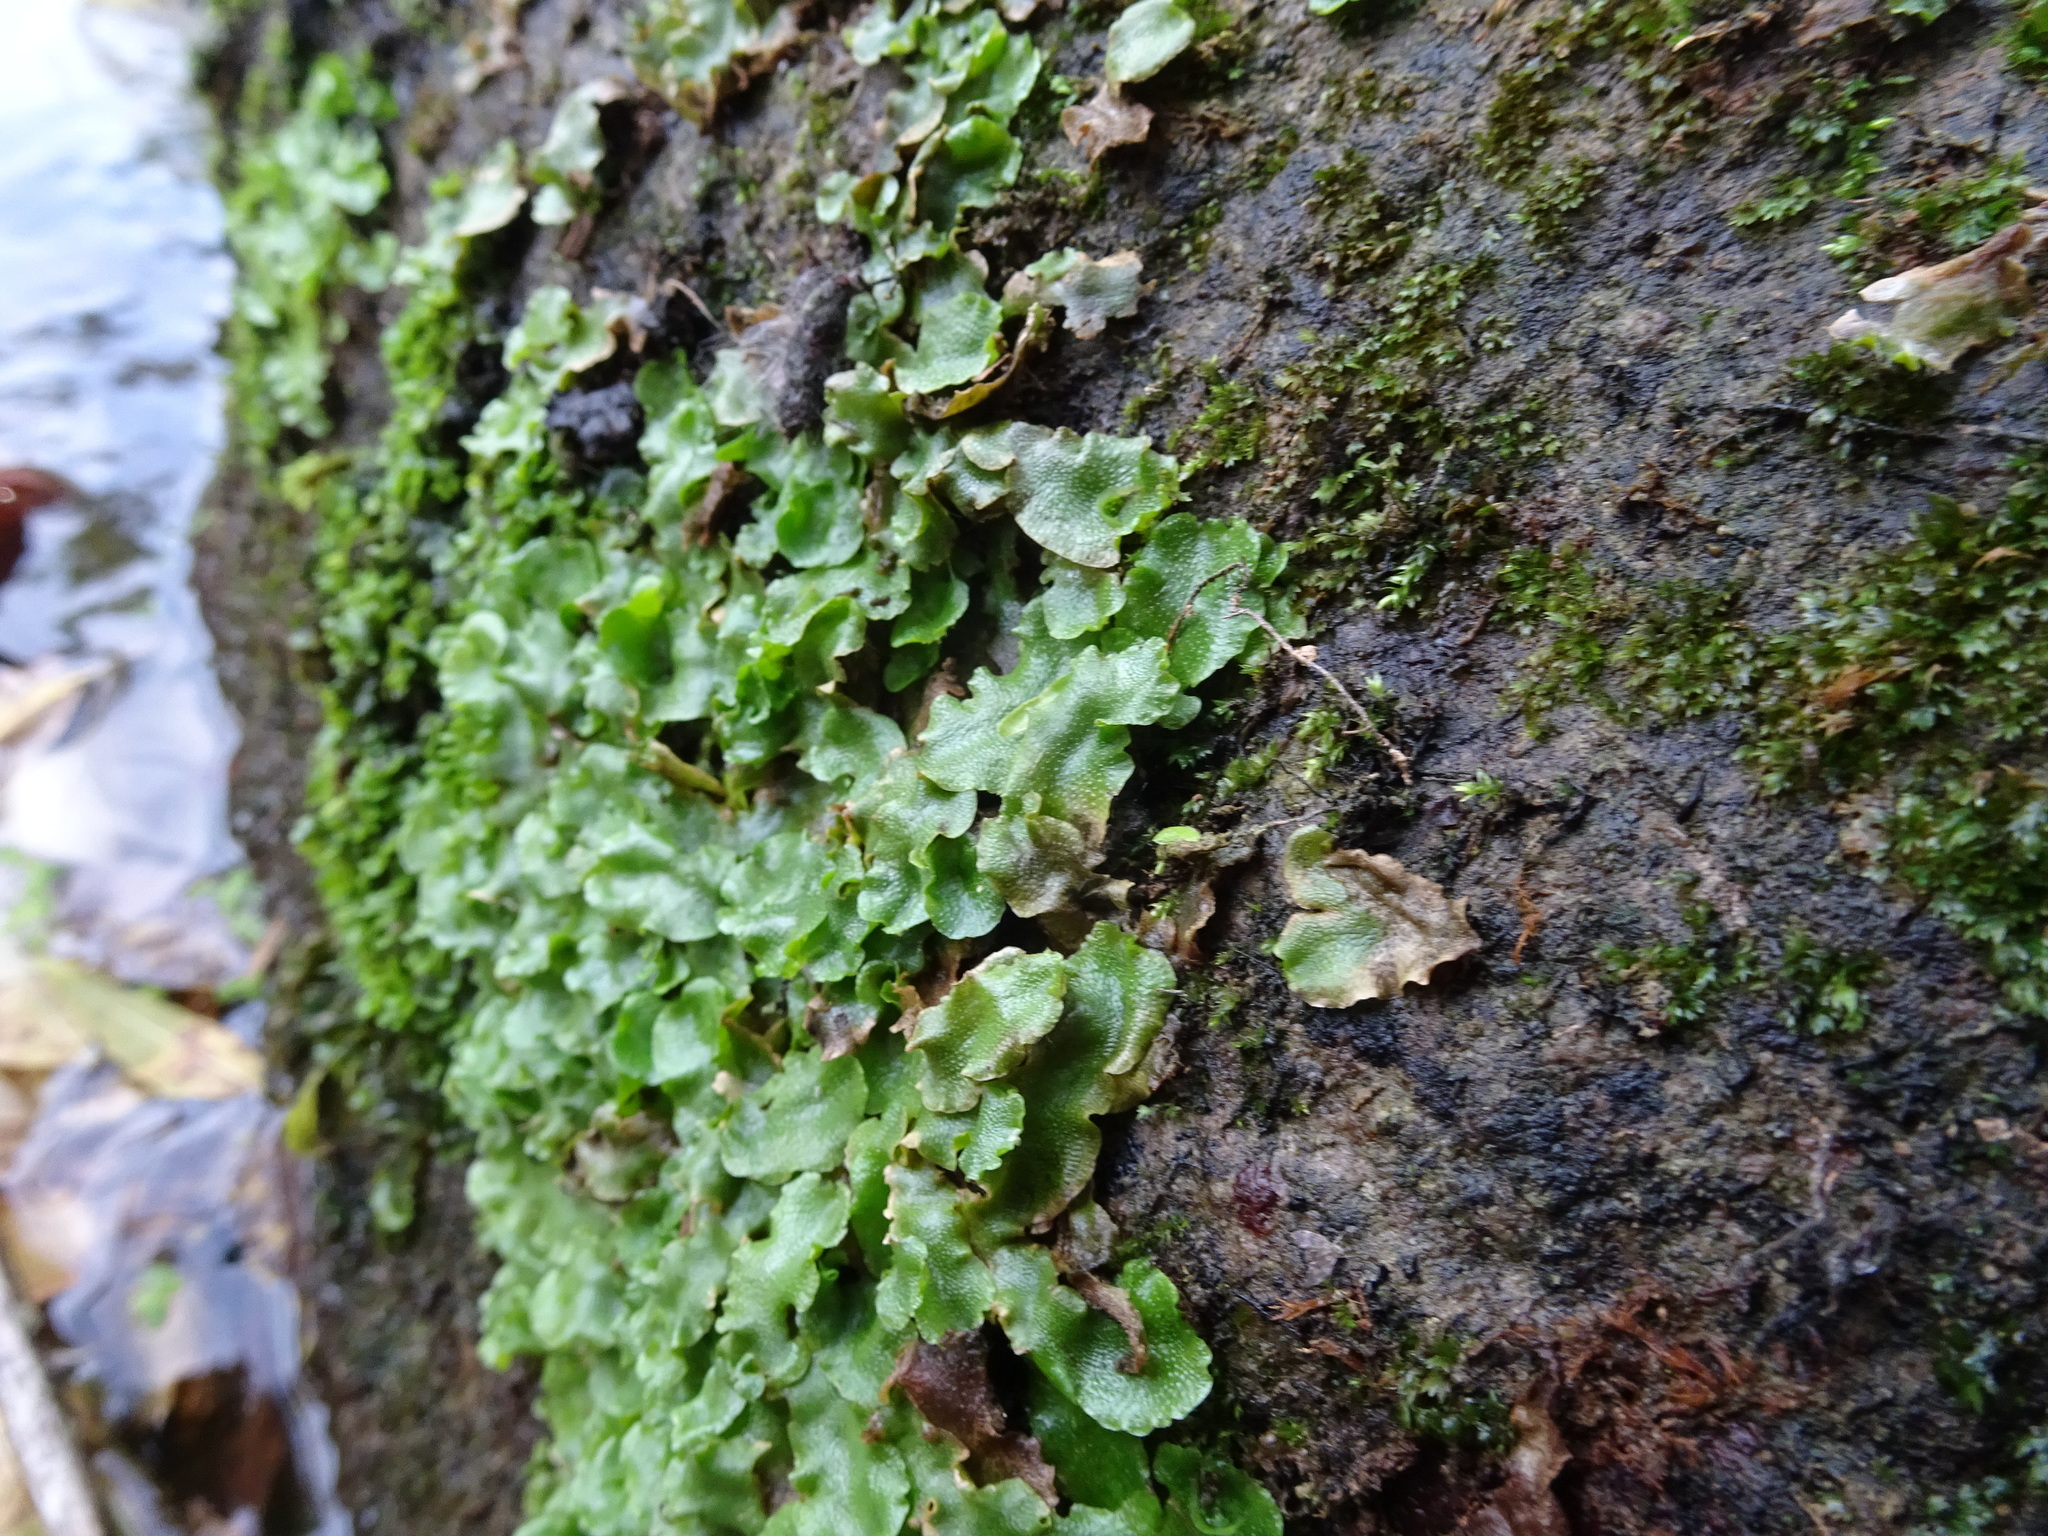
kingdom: Plantae
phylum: Marchantiophyta
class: Marchantiopsida
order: Lunulariales
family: Lunulariaceae
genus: Lunularia
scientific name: Lunularia cruciata
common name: Crescent-cup liverwort
